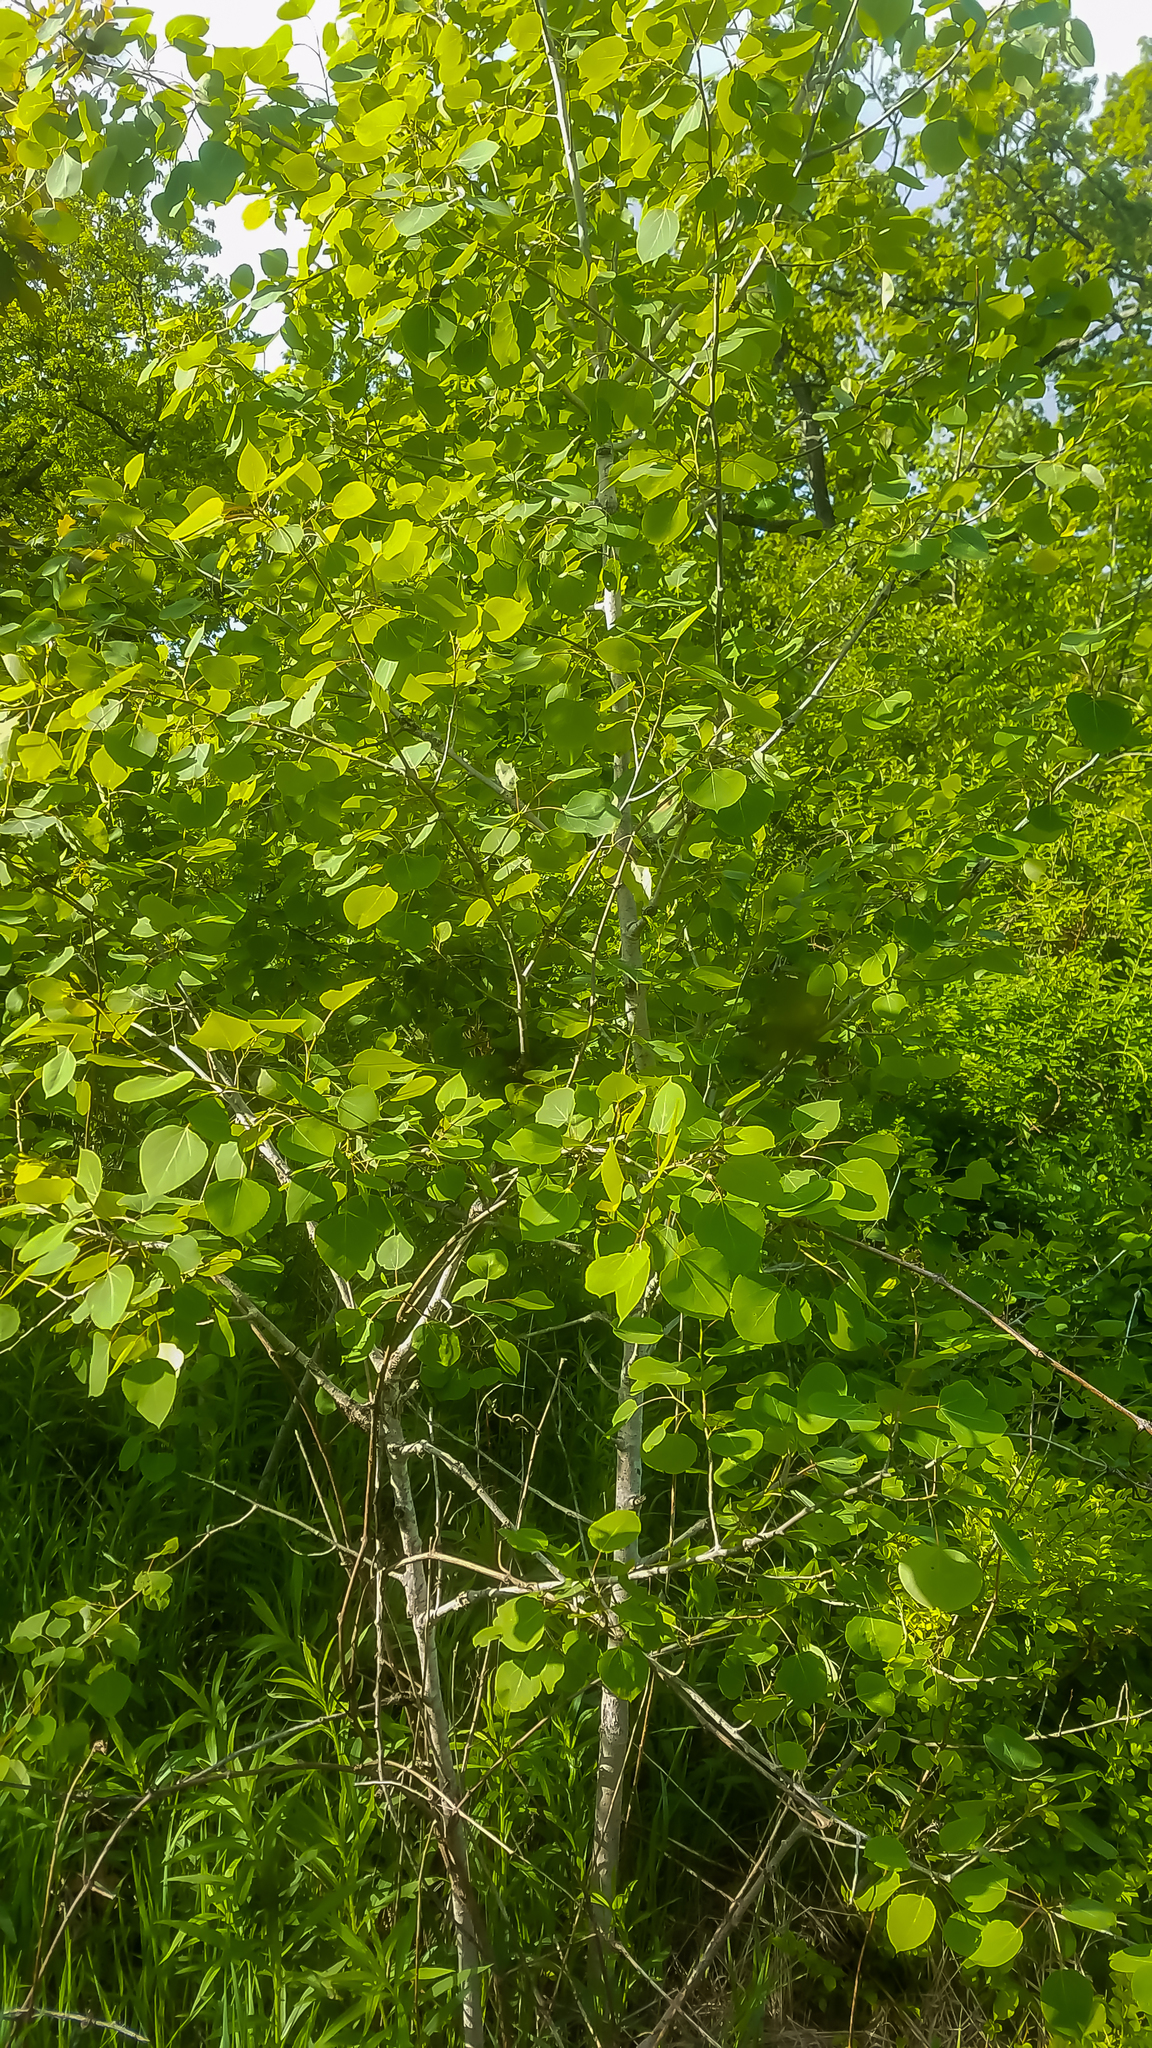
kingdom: Plantae
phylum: Tracheophyta
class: Magnoliopsida
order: Malpighiales
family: Salicaceae
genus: Populus
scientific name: Populus tremuloides
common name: Quaking aspen
